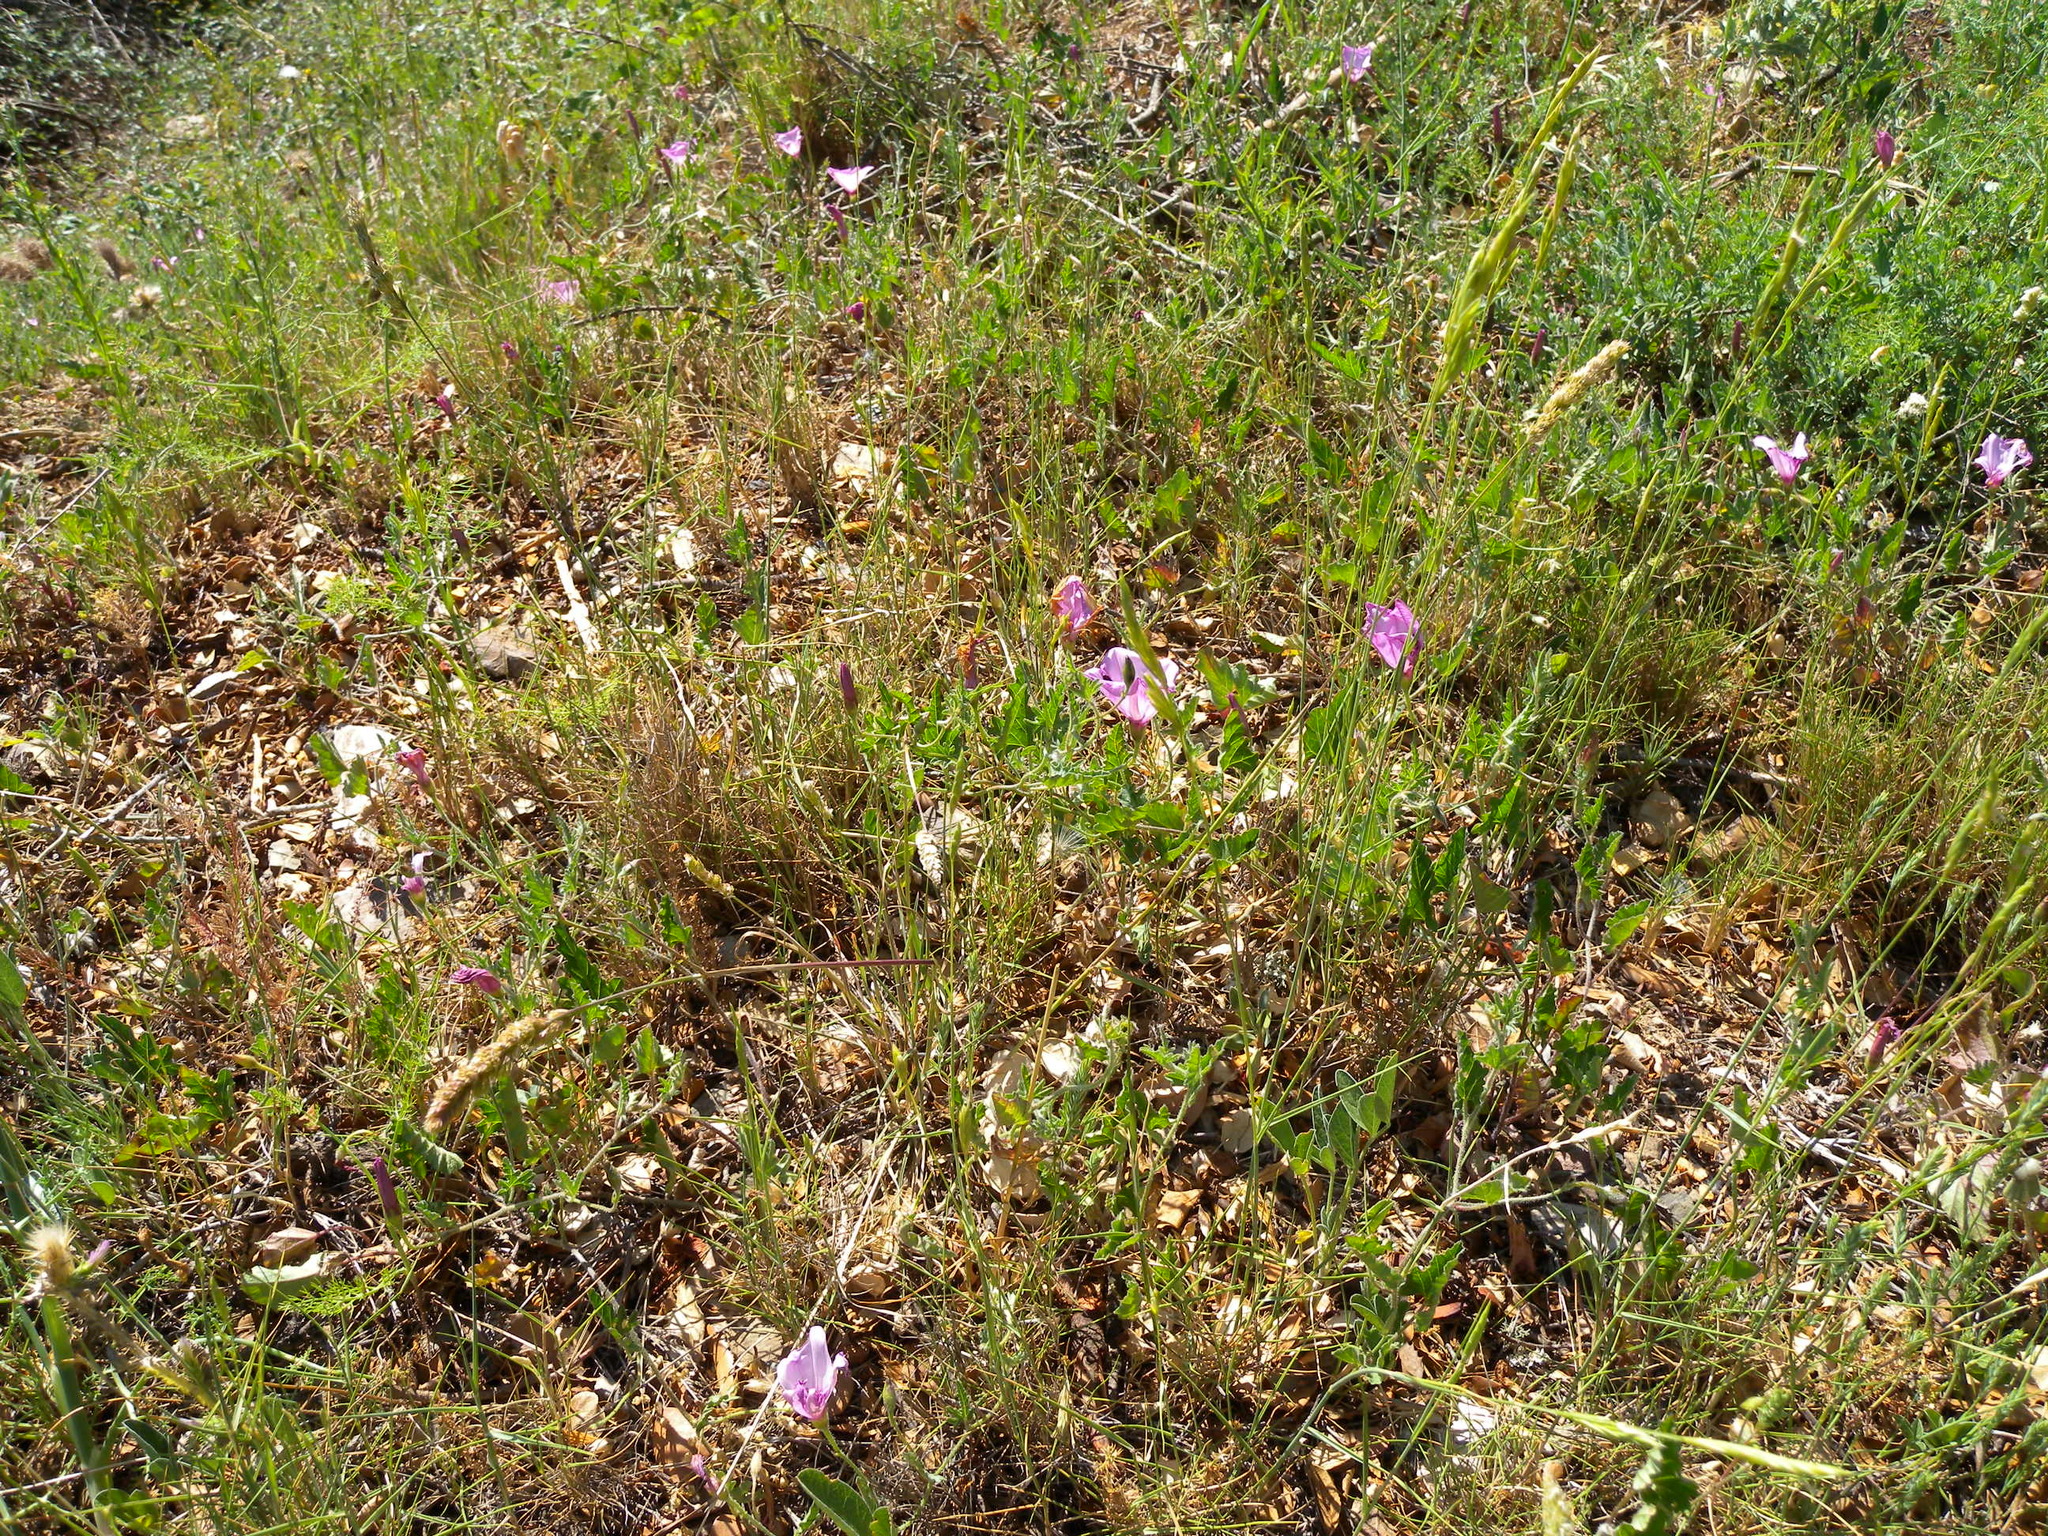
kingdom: Plantae
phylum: Tracheophyta
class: Magnoliopsida
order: Solanales
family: Convolvulaceae
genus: Convolvulus
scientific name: Convolvulus althaeoides
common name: Mallow bindweed
